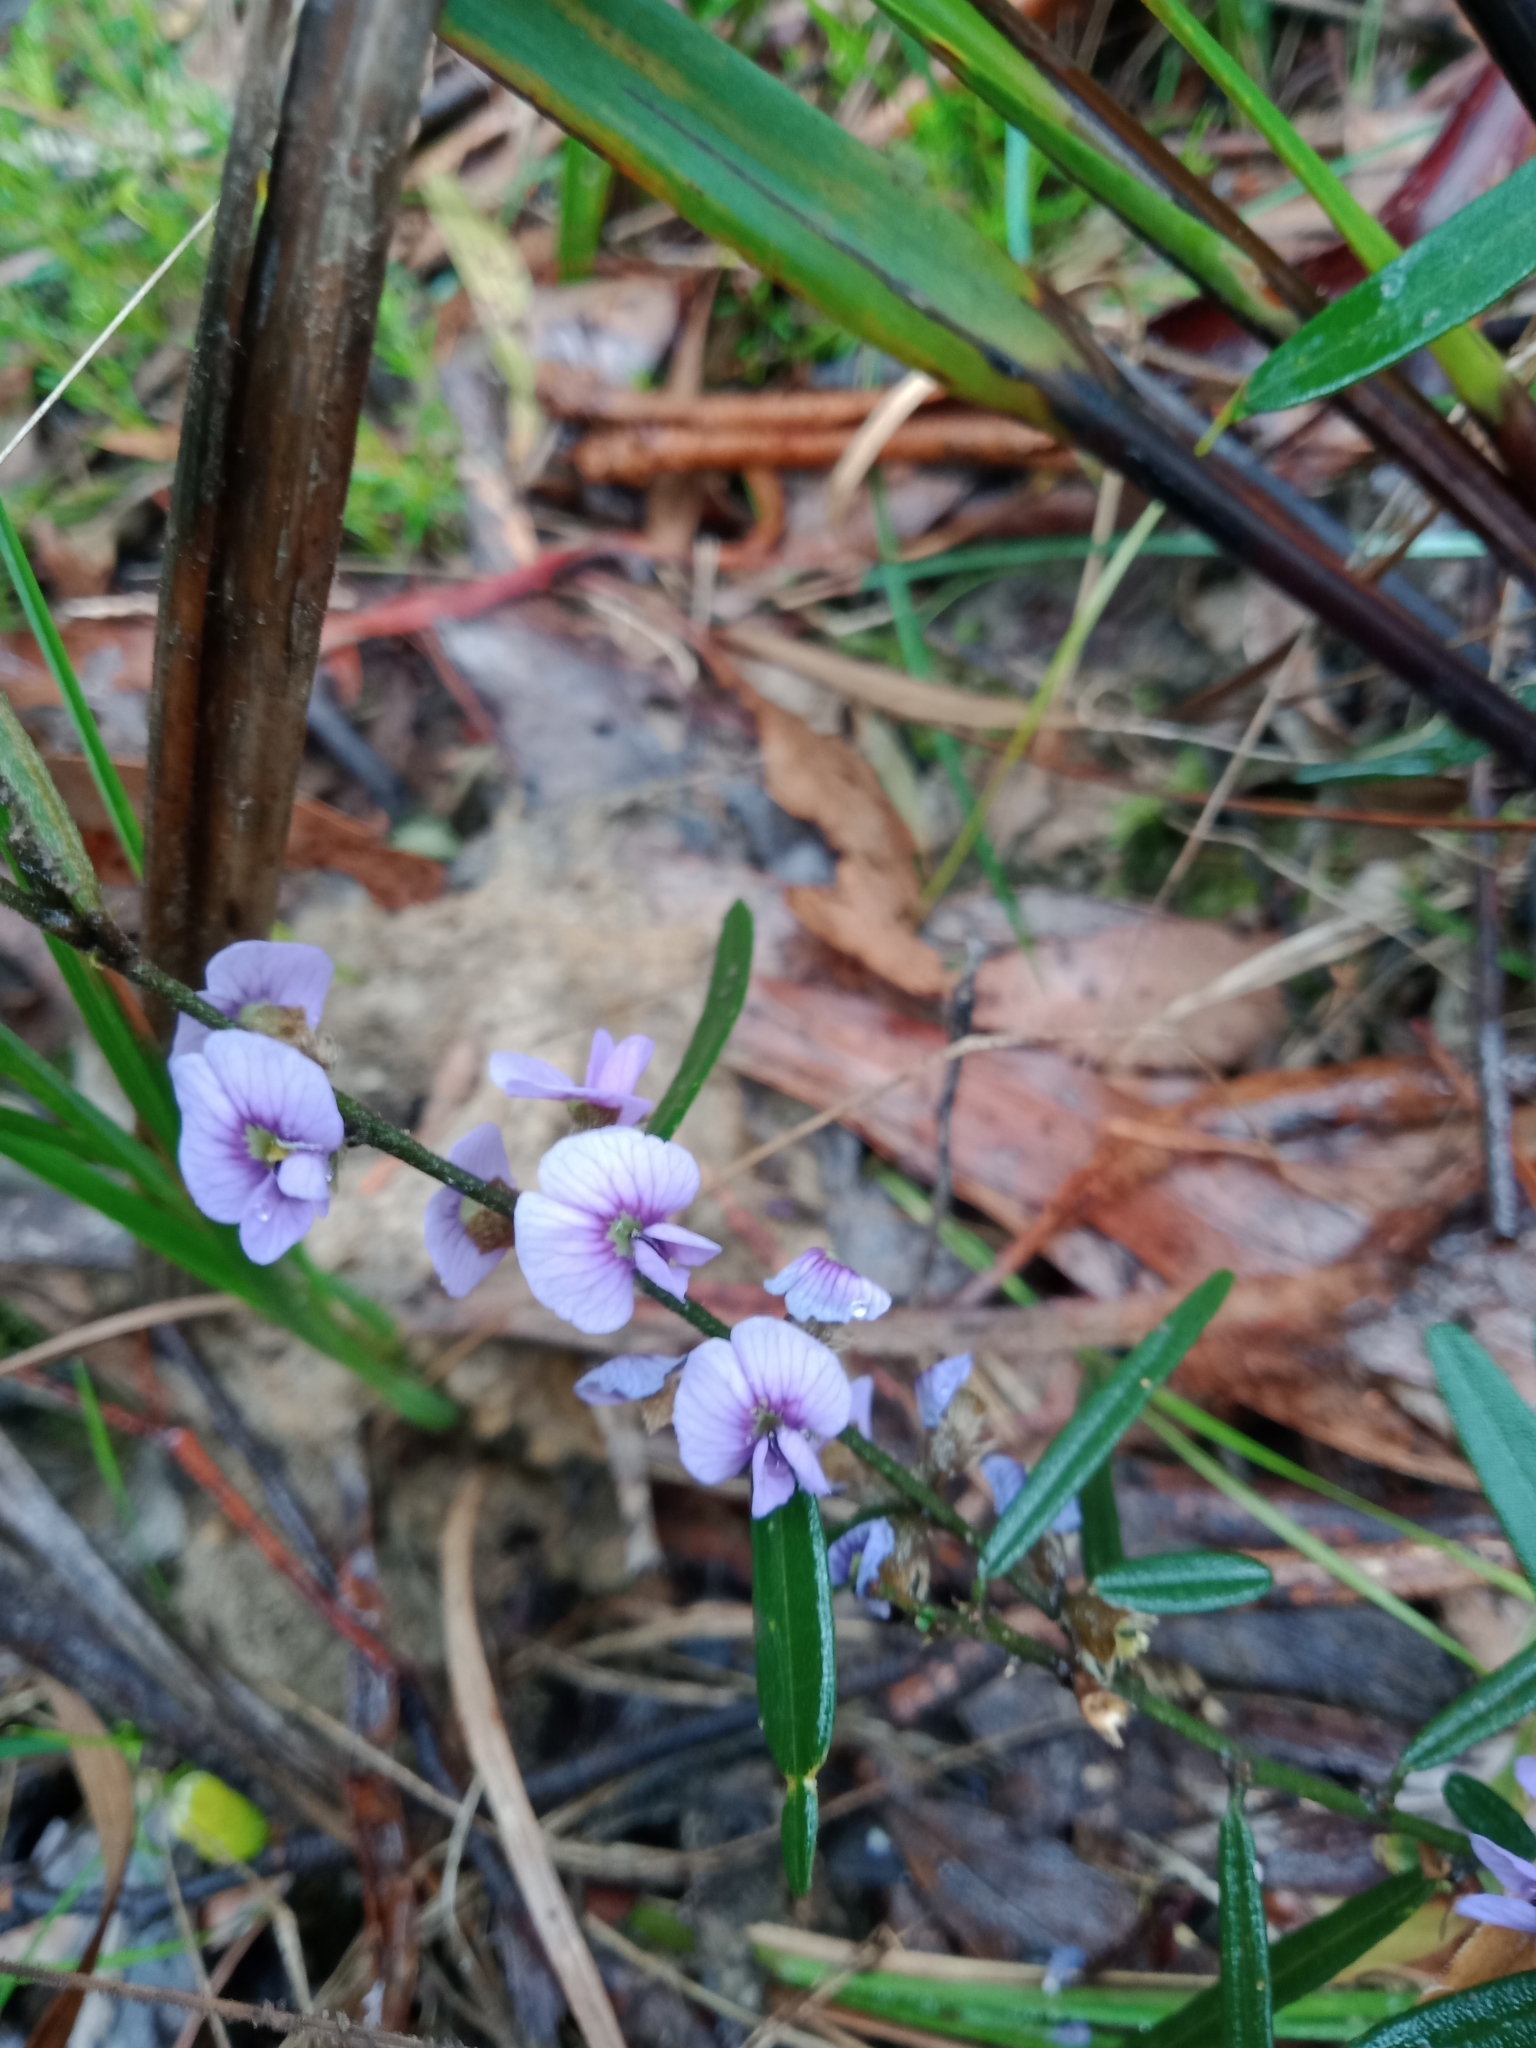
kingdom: Plantae
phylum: Tracheophyta
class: Magnoliopsida
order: Fabales
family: Fabaceae
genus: Hovea
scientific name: Hovea heterophylla
